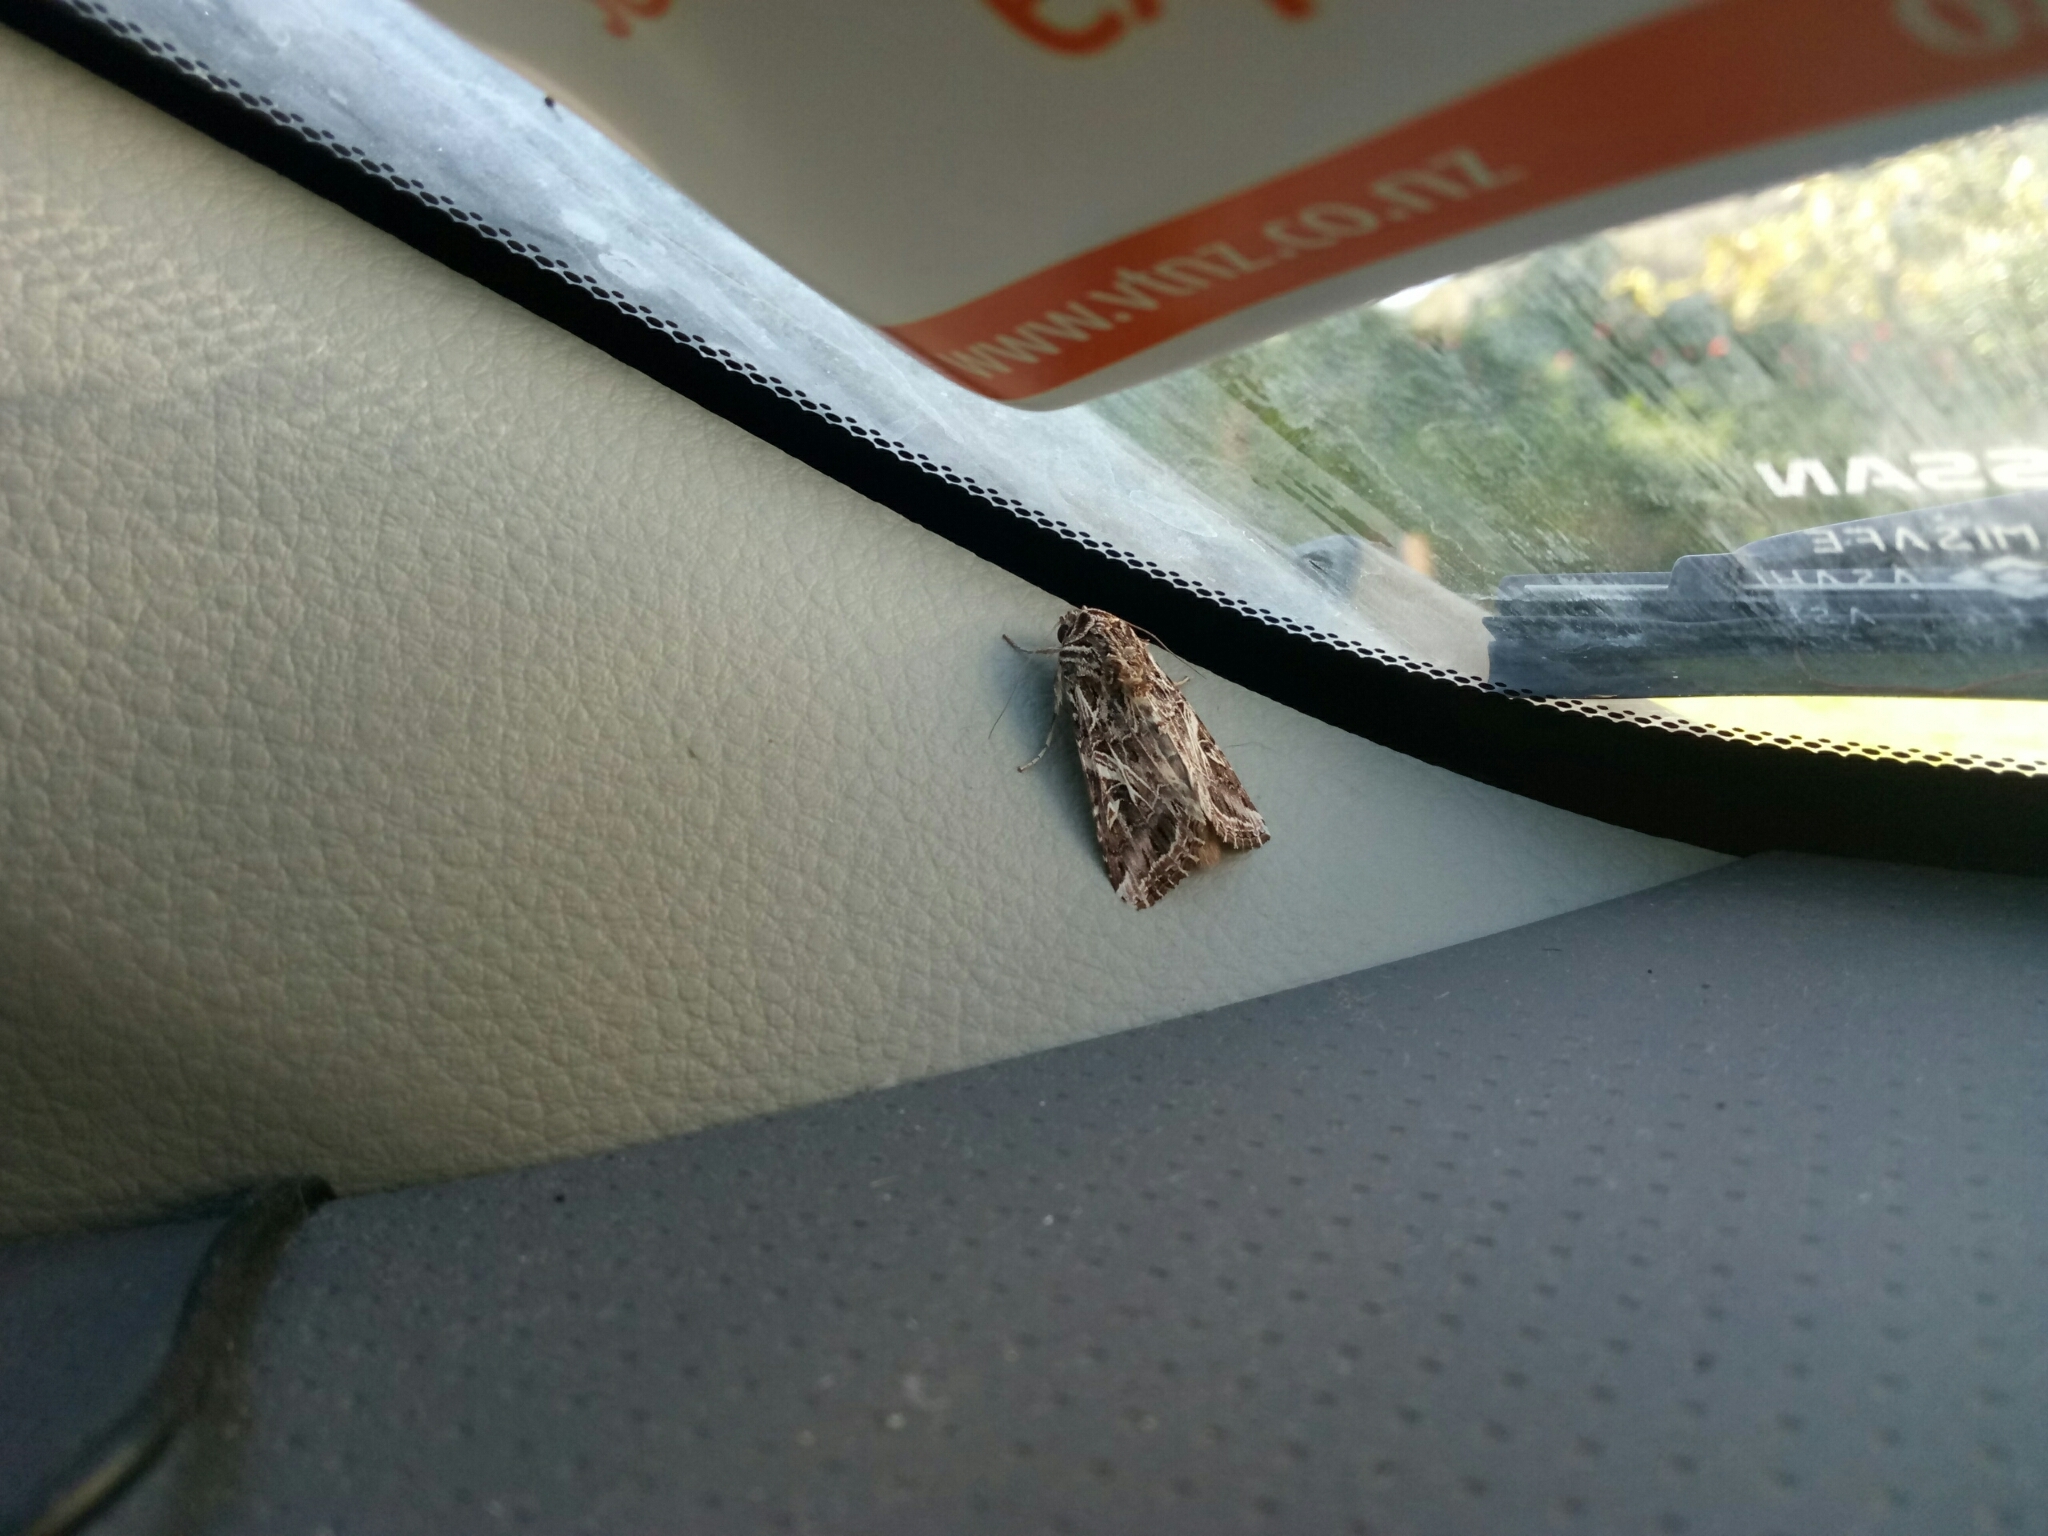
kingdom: Animalia
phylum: Arthropoda
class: Insecta
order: Lepidoptera
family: Noctuidae
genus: Spodoptera
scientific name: Spodoptera litura
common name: Asian cotton leafworm
